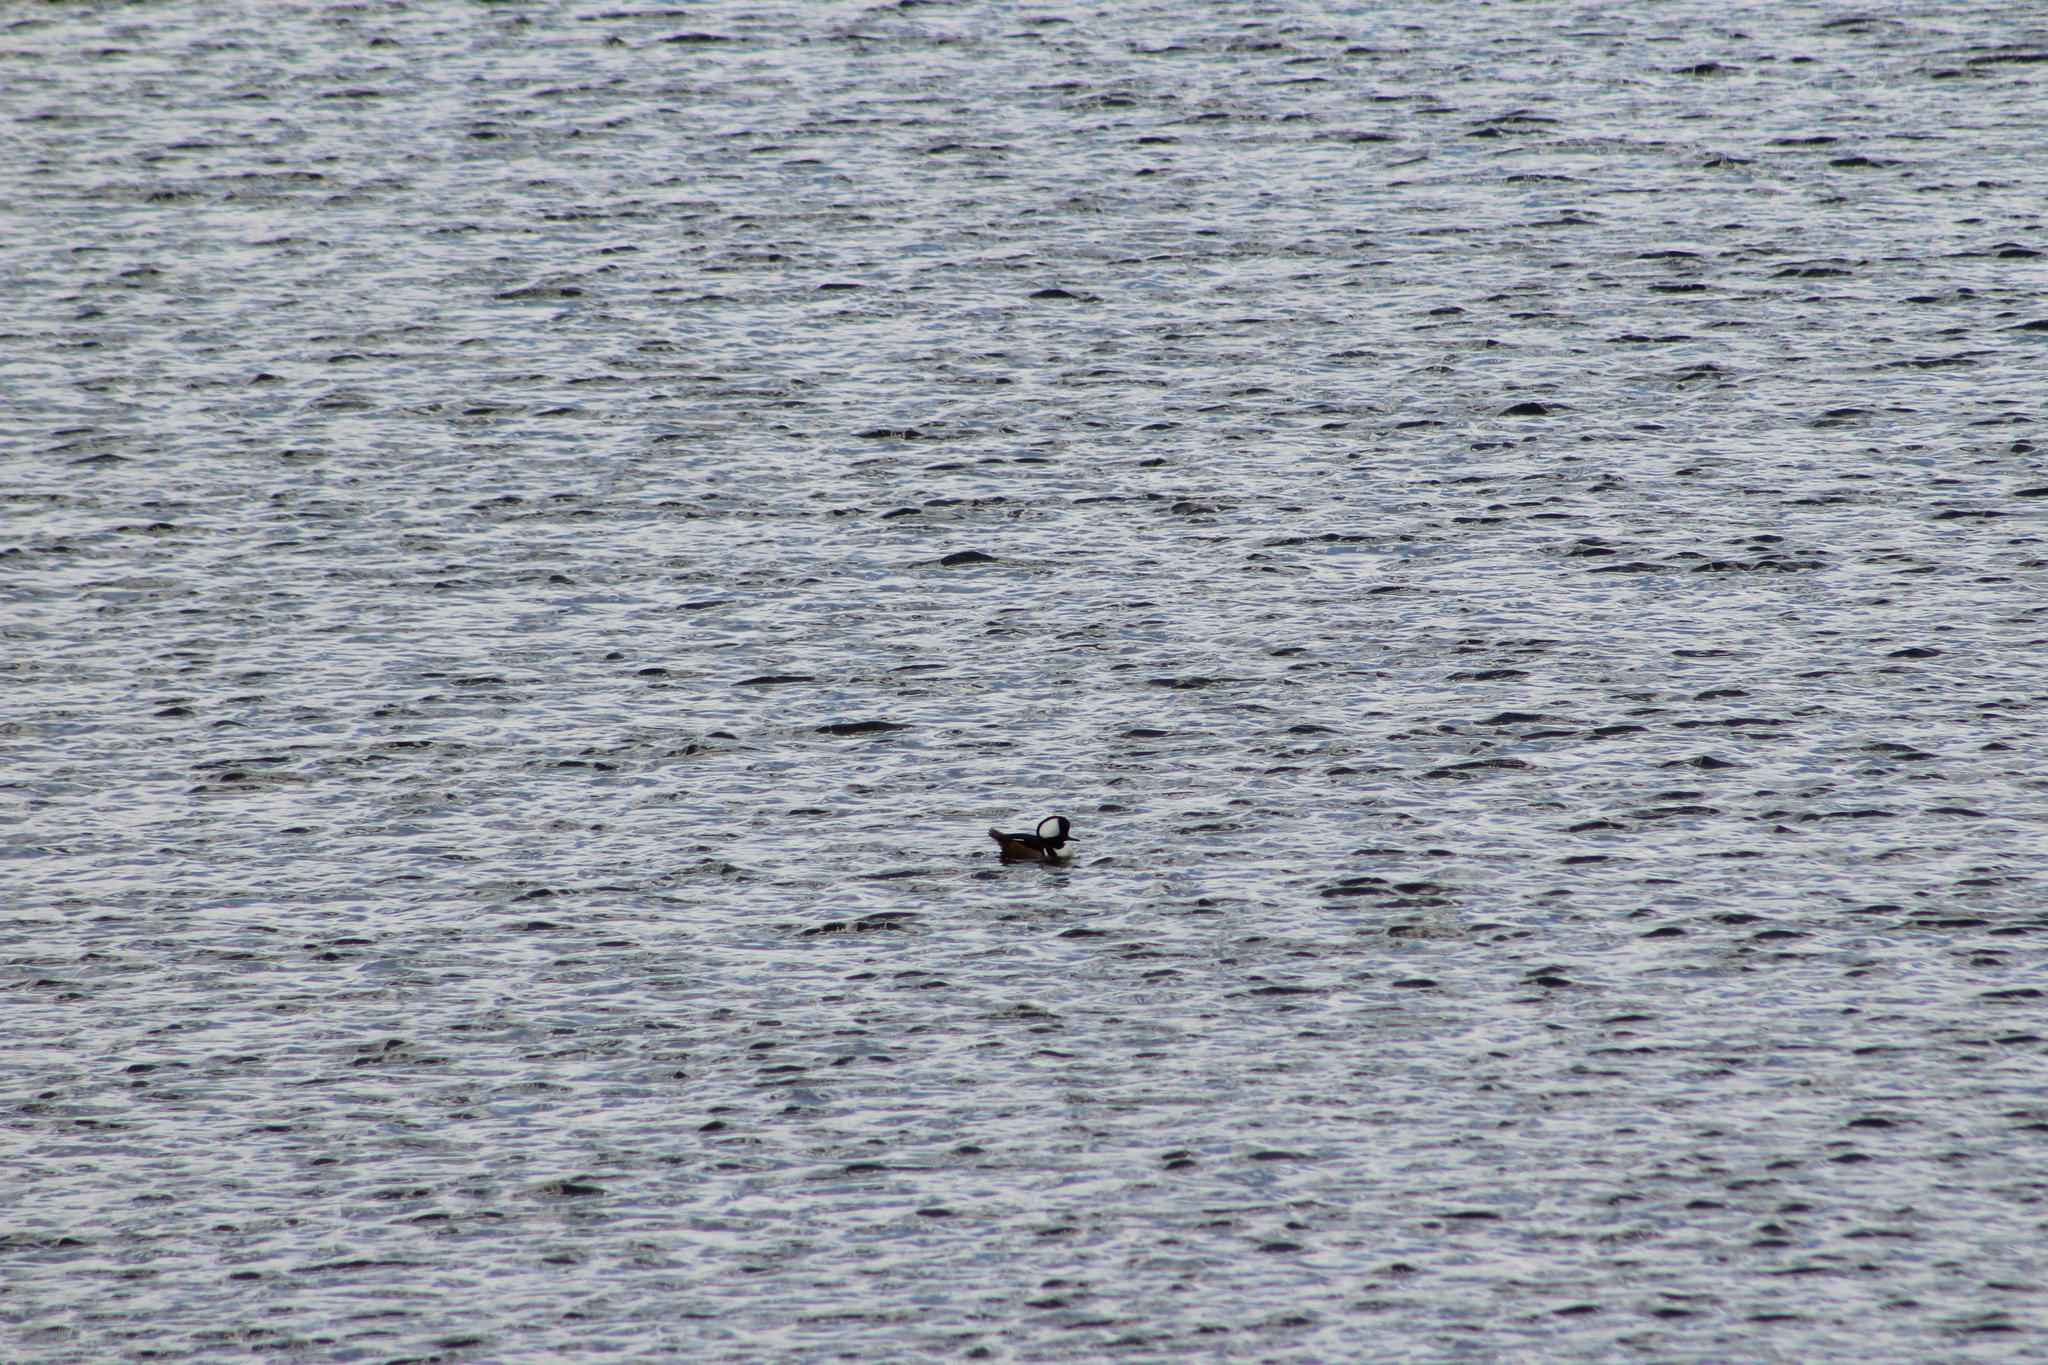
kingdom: Animalia
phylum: Chordata
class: Aves
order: Anseriformes
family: Anatidae
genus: Lophodytes
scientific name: Lophodytes cucullatus
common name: Hooded merganser
